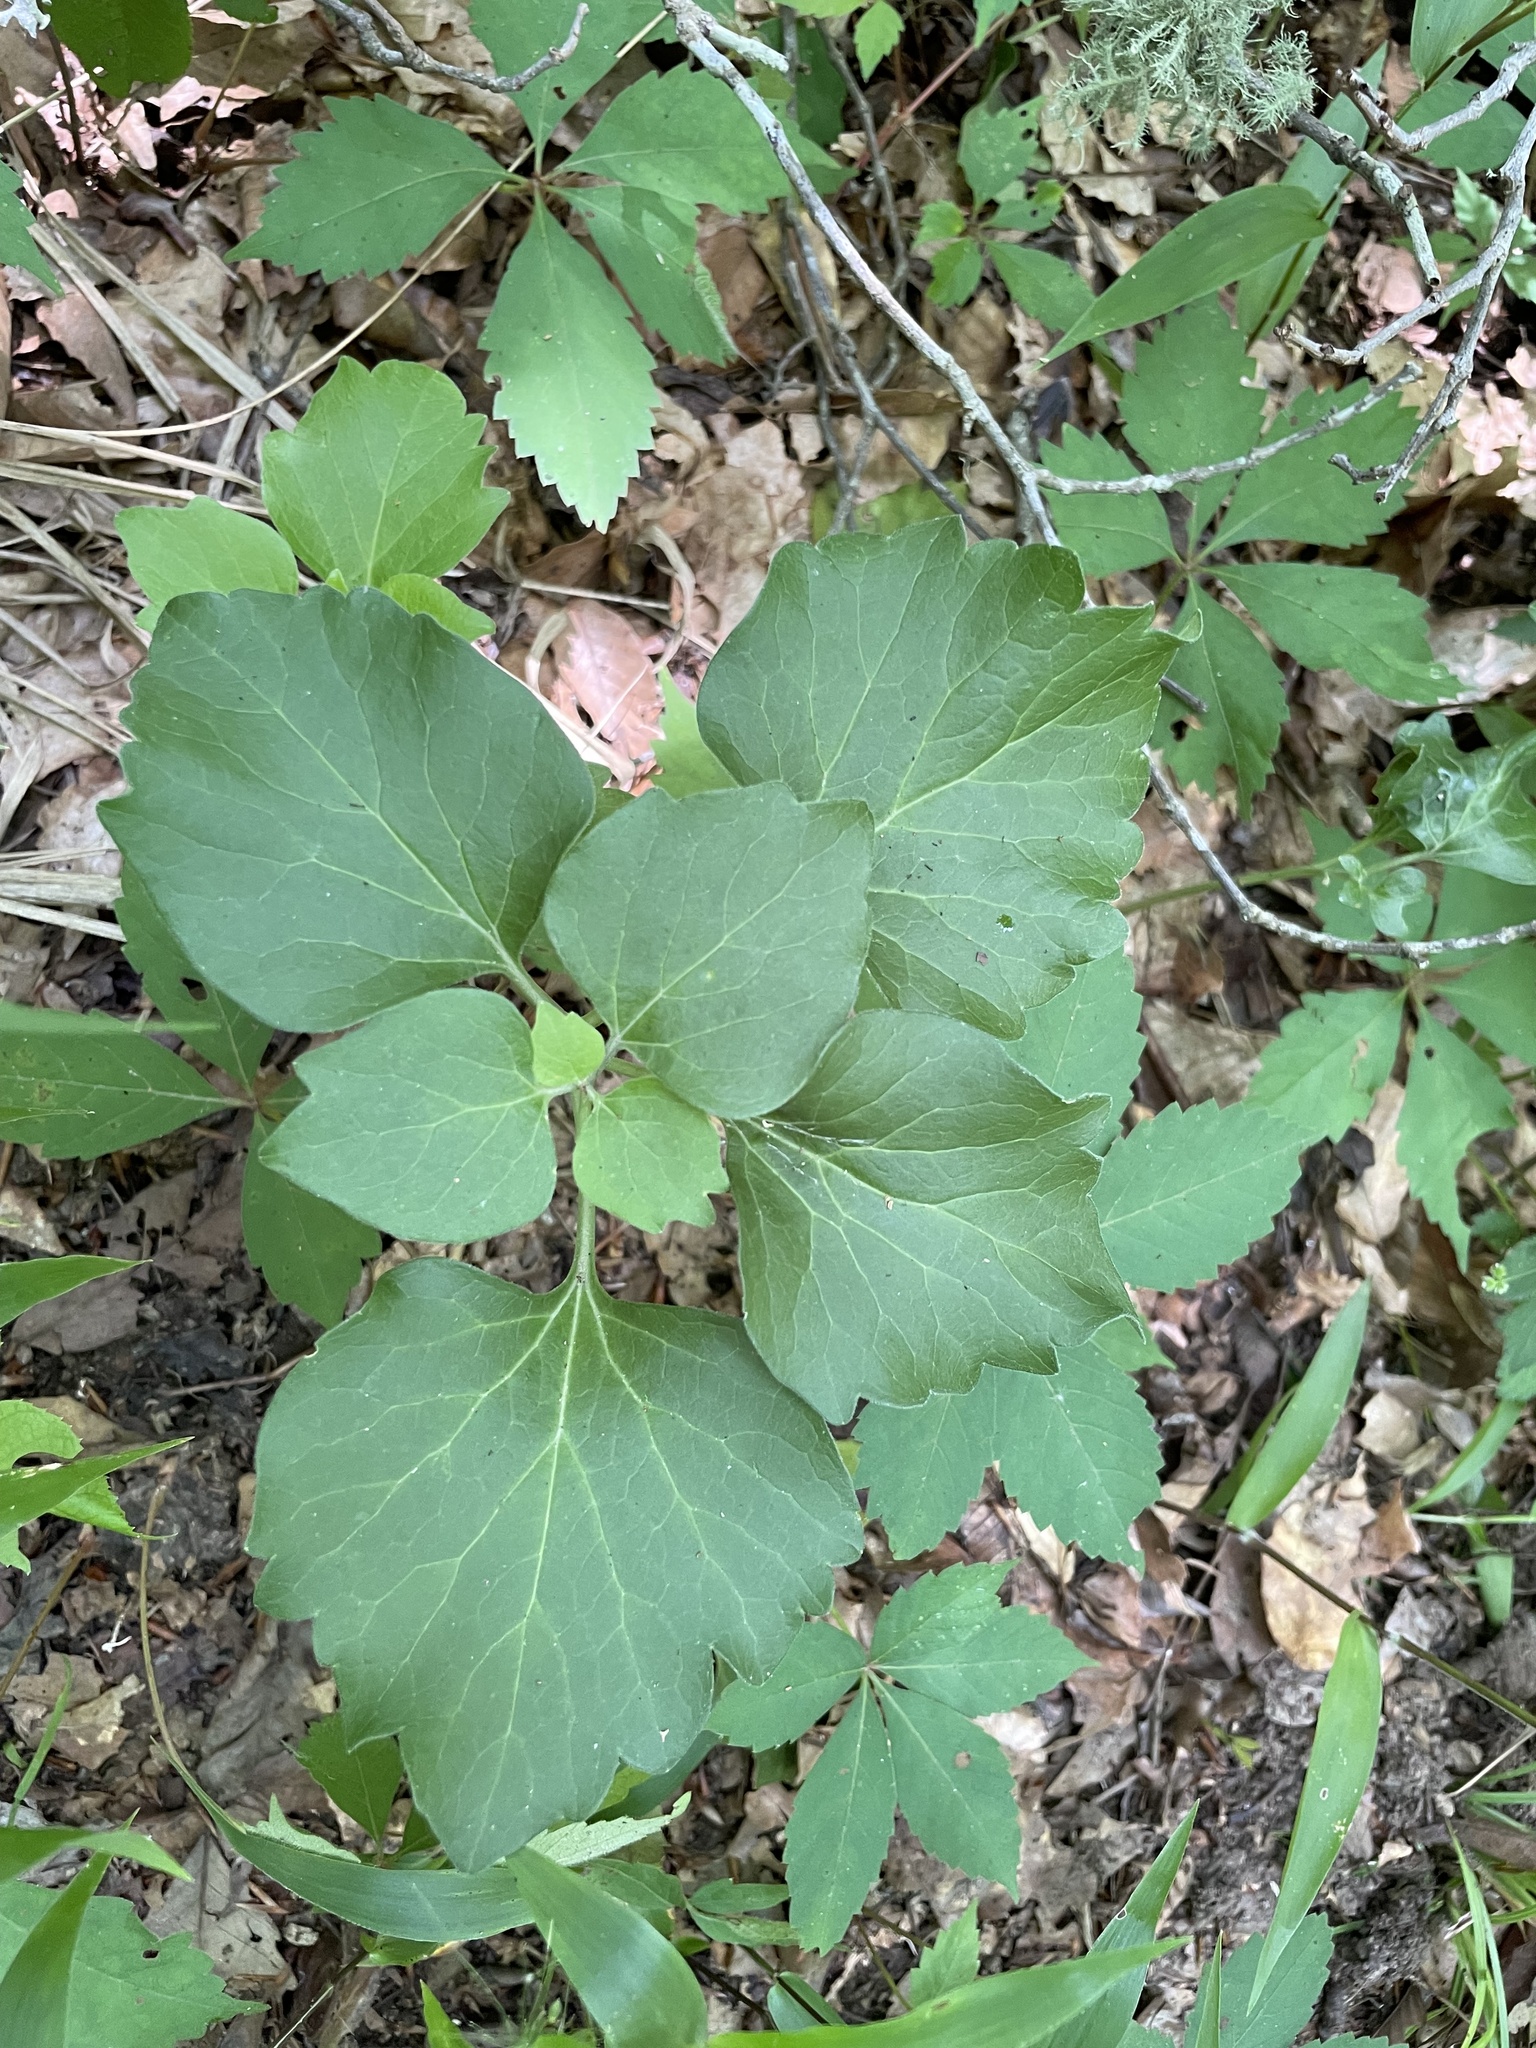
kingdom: Plantae
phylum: Tracheophyta
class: Magnoliopsida
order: Buxales
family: Buxaceae
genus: Pachysandra
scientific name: Pachysandra procumbens
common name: Mountain-spurge
